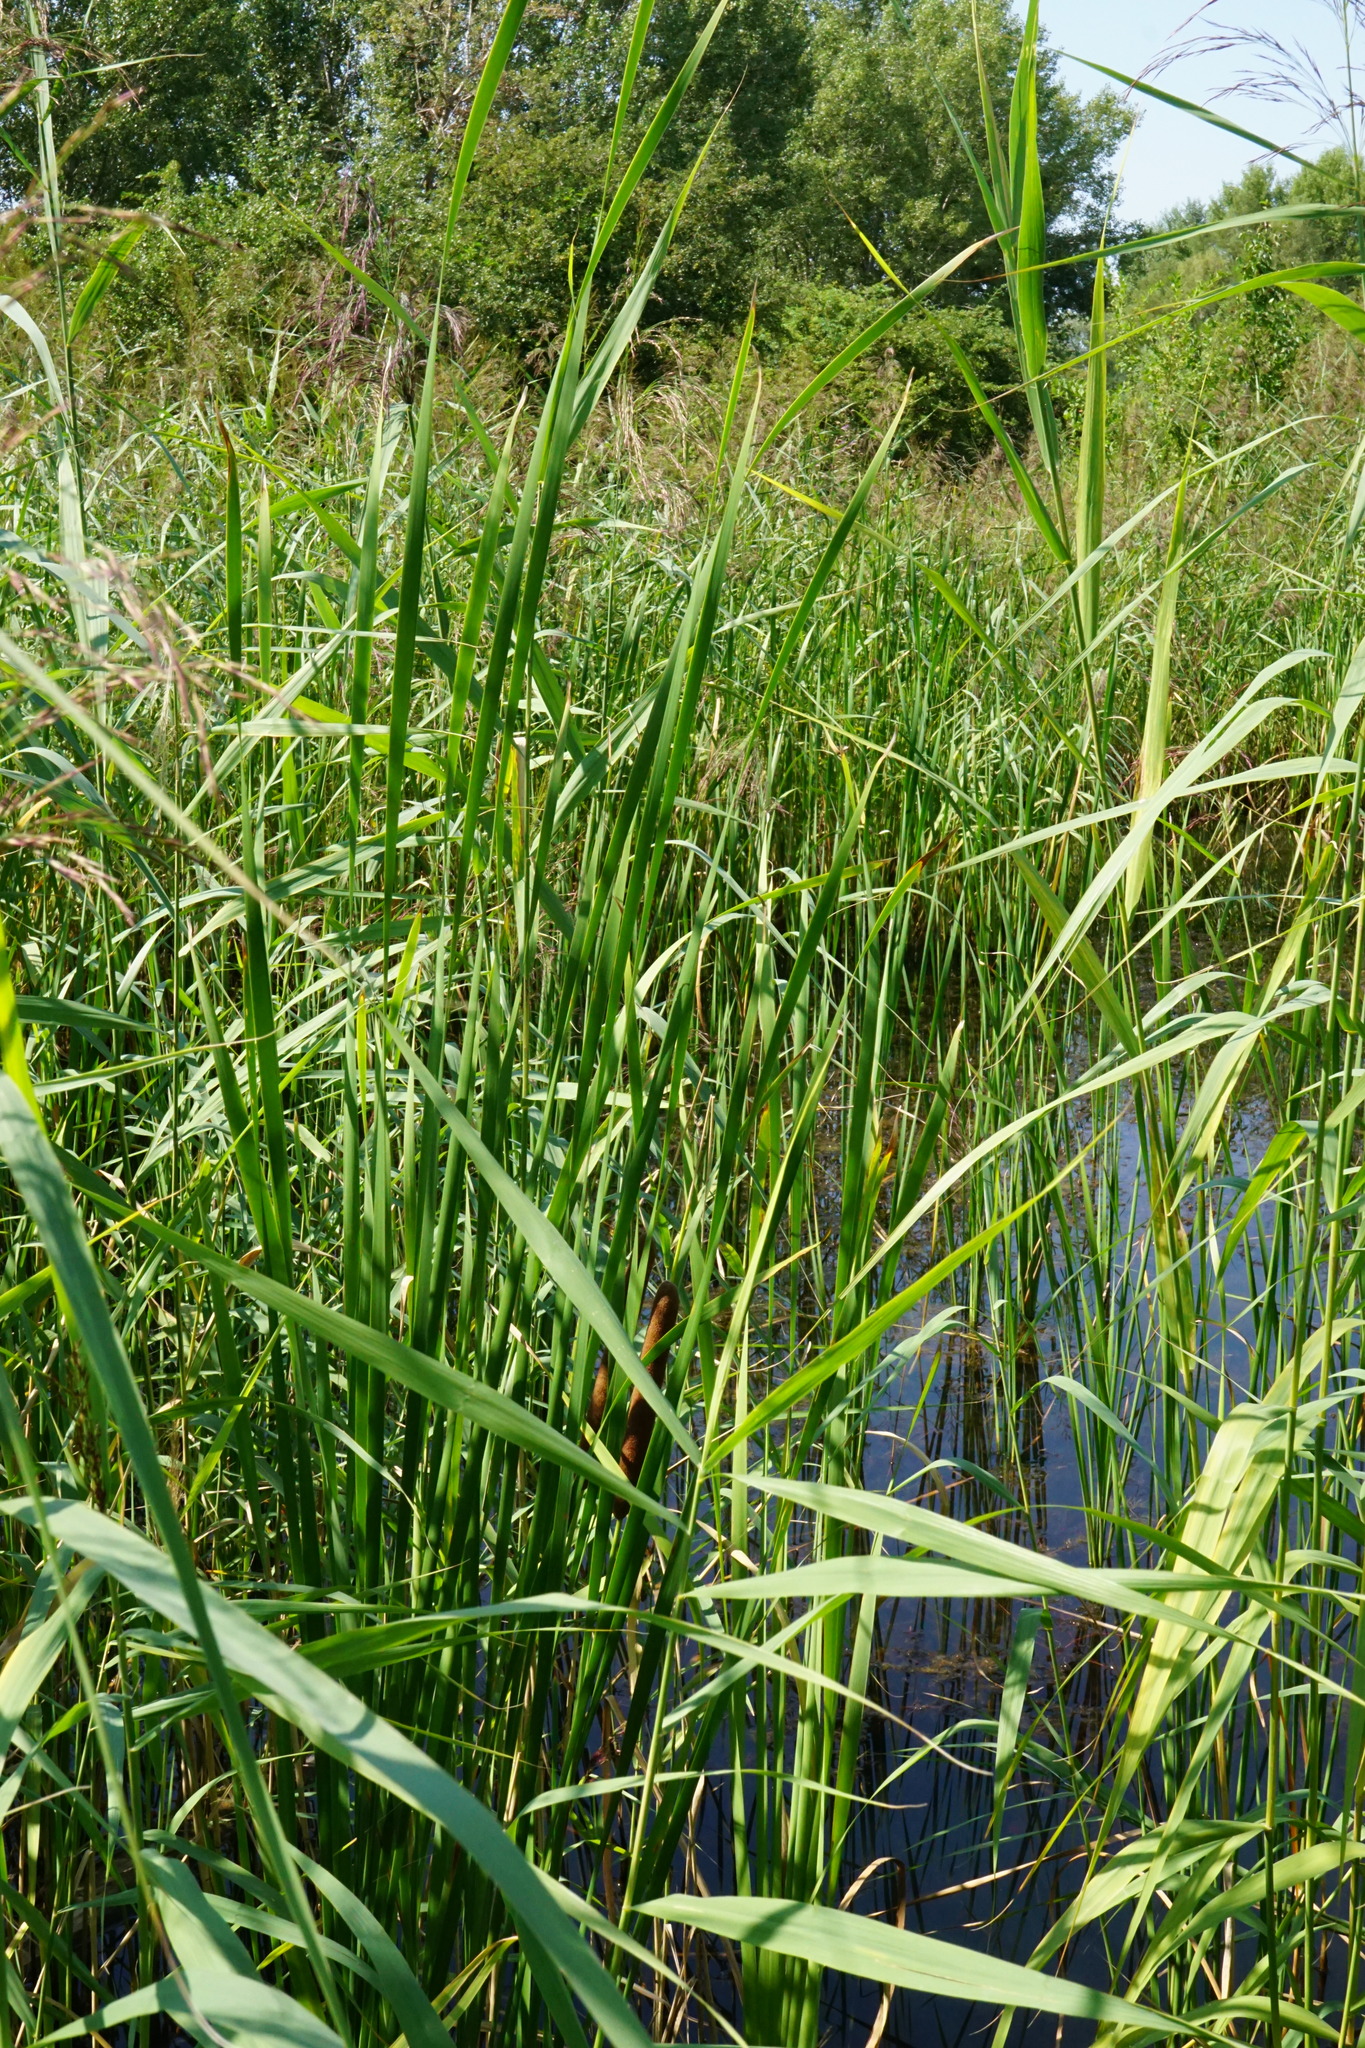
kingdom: Plantae
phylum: Tracheophyta
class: Liliopsida
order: Poales
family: Typhaceae
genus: Typha
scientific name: Typha angustifolia
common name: Lesser bulrush
